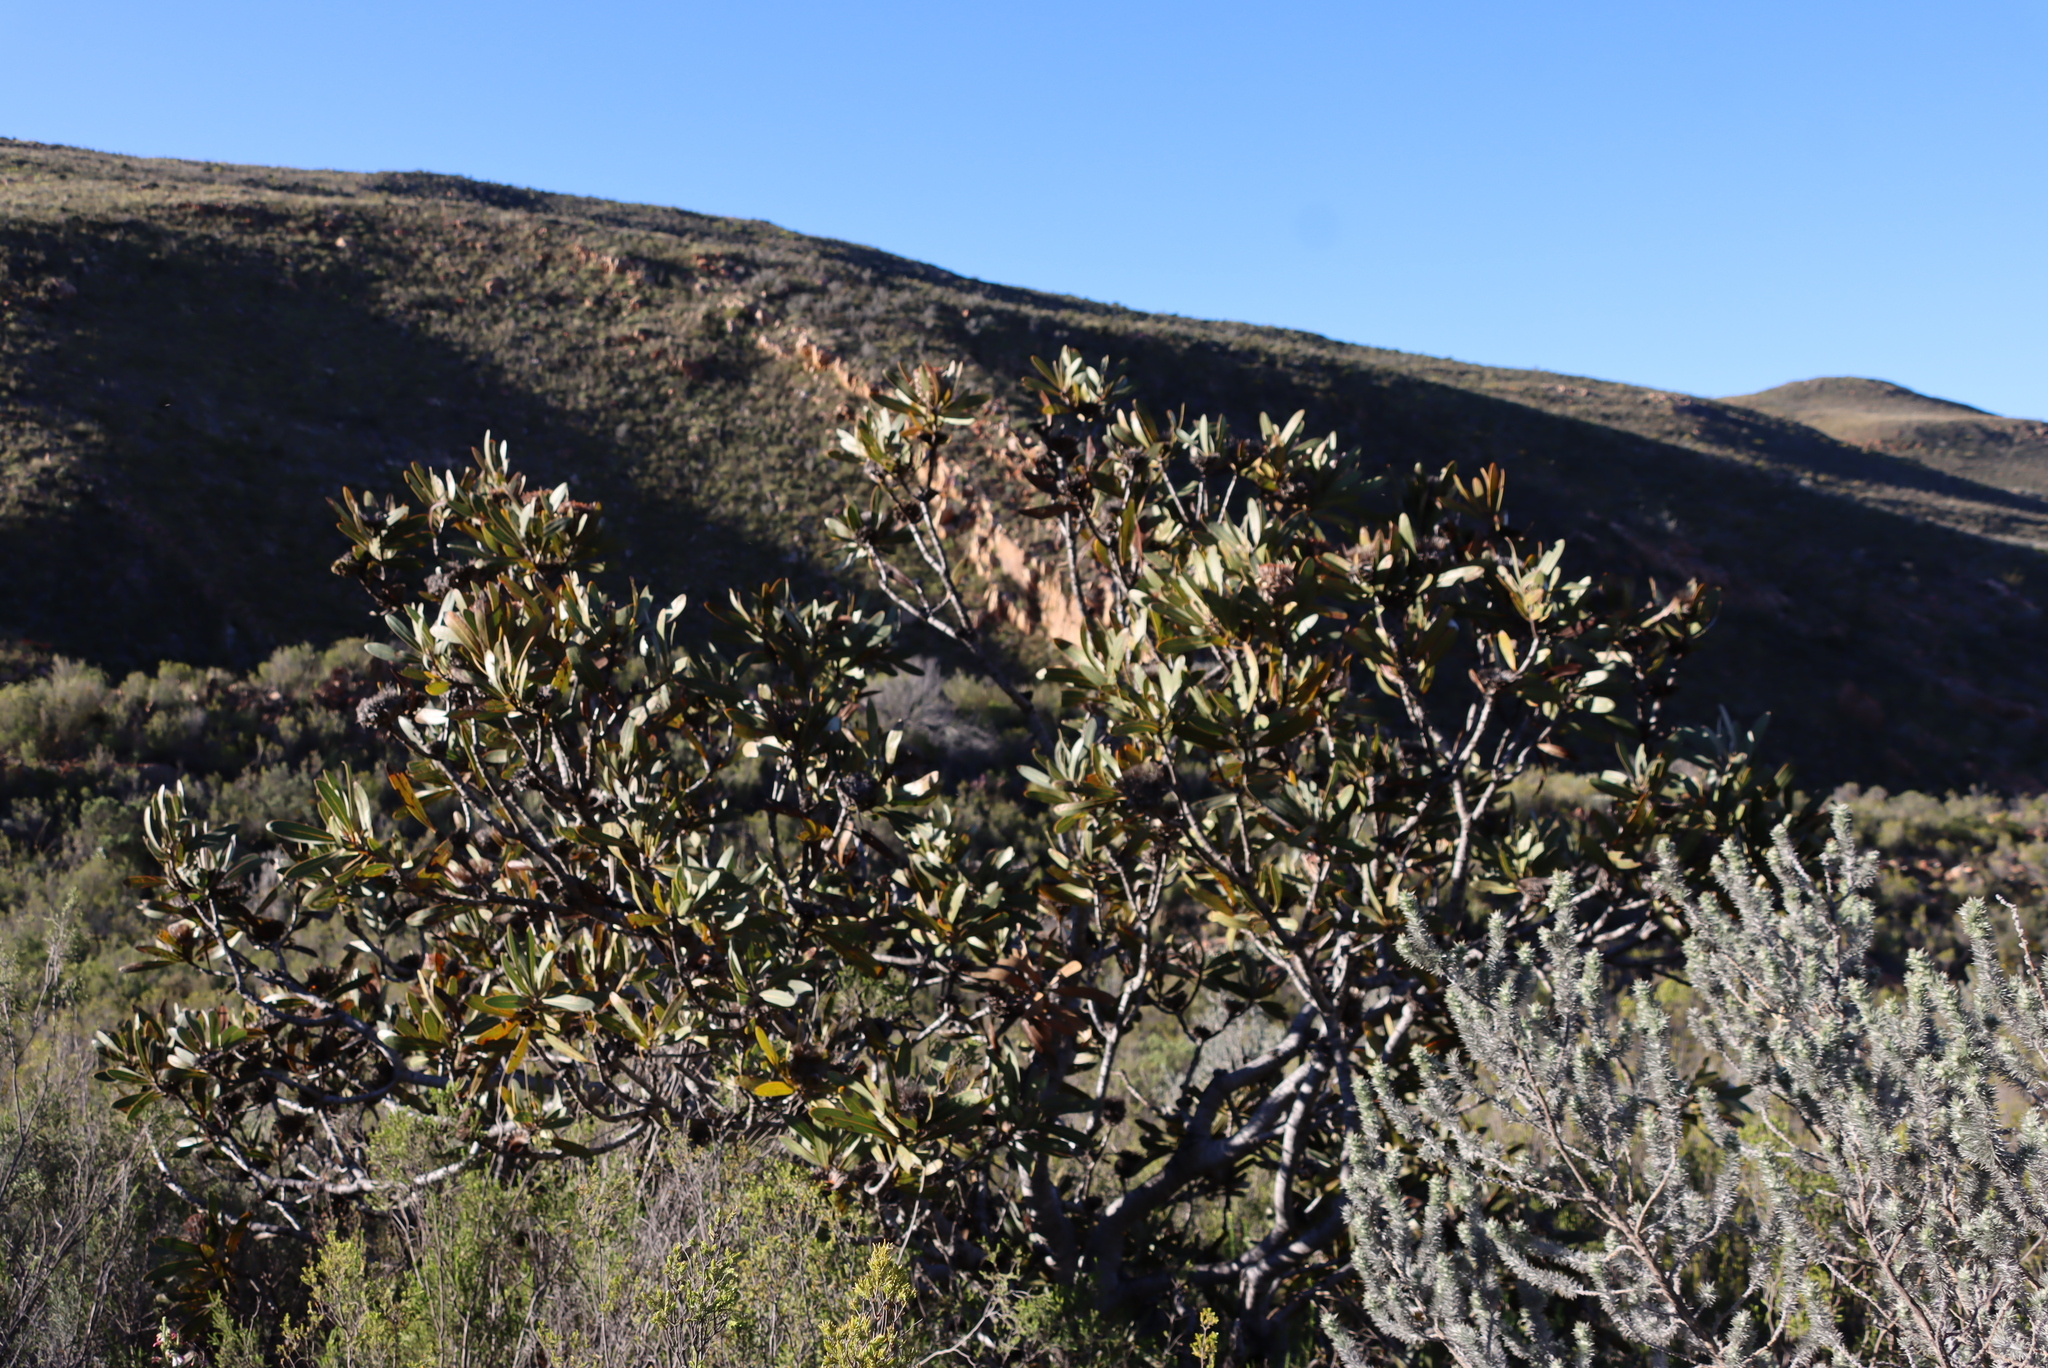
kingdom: Plantae
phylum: Tracheophyta
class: Magnoliopsida
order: Proteales
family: Proteaceae
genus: Protea
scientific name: Protea lorifolia
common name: Strap-leaved protea
